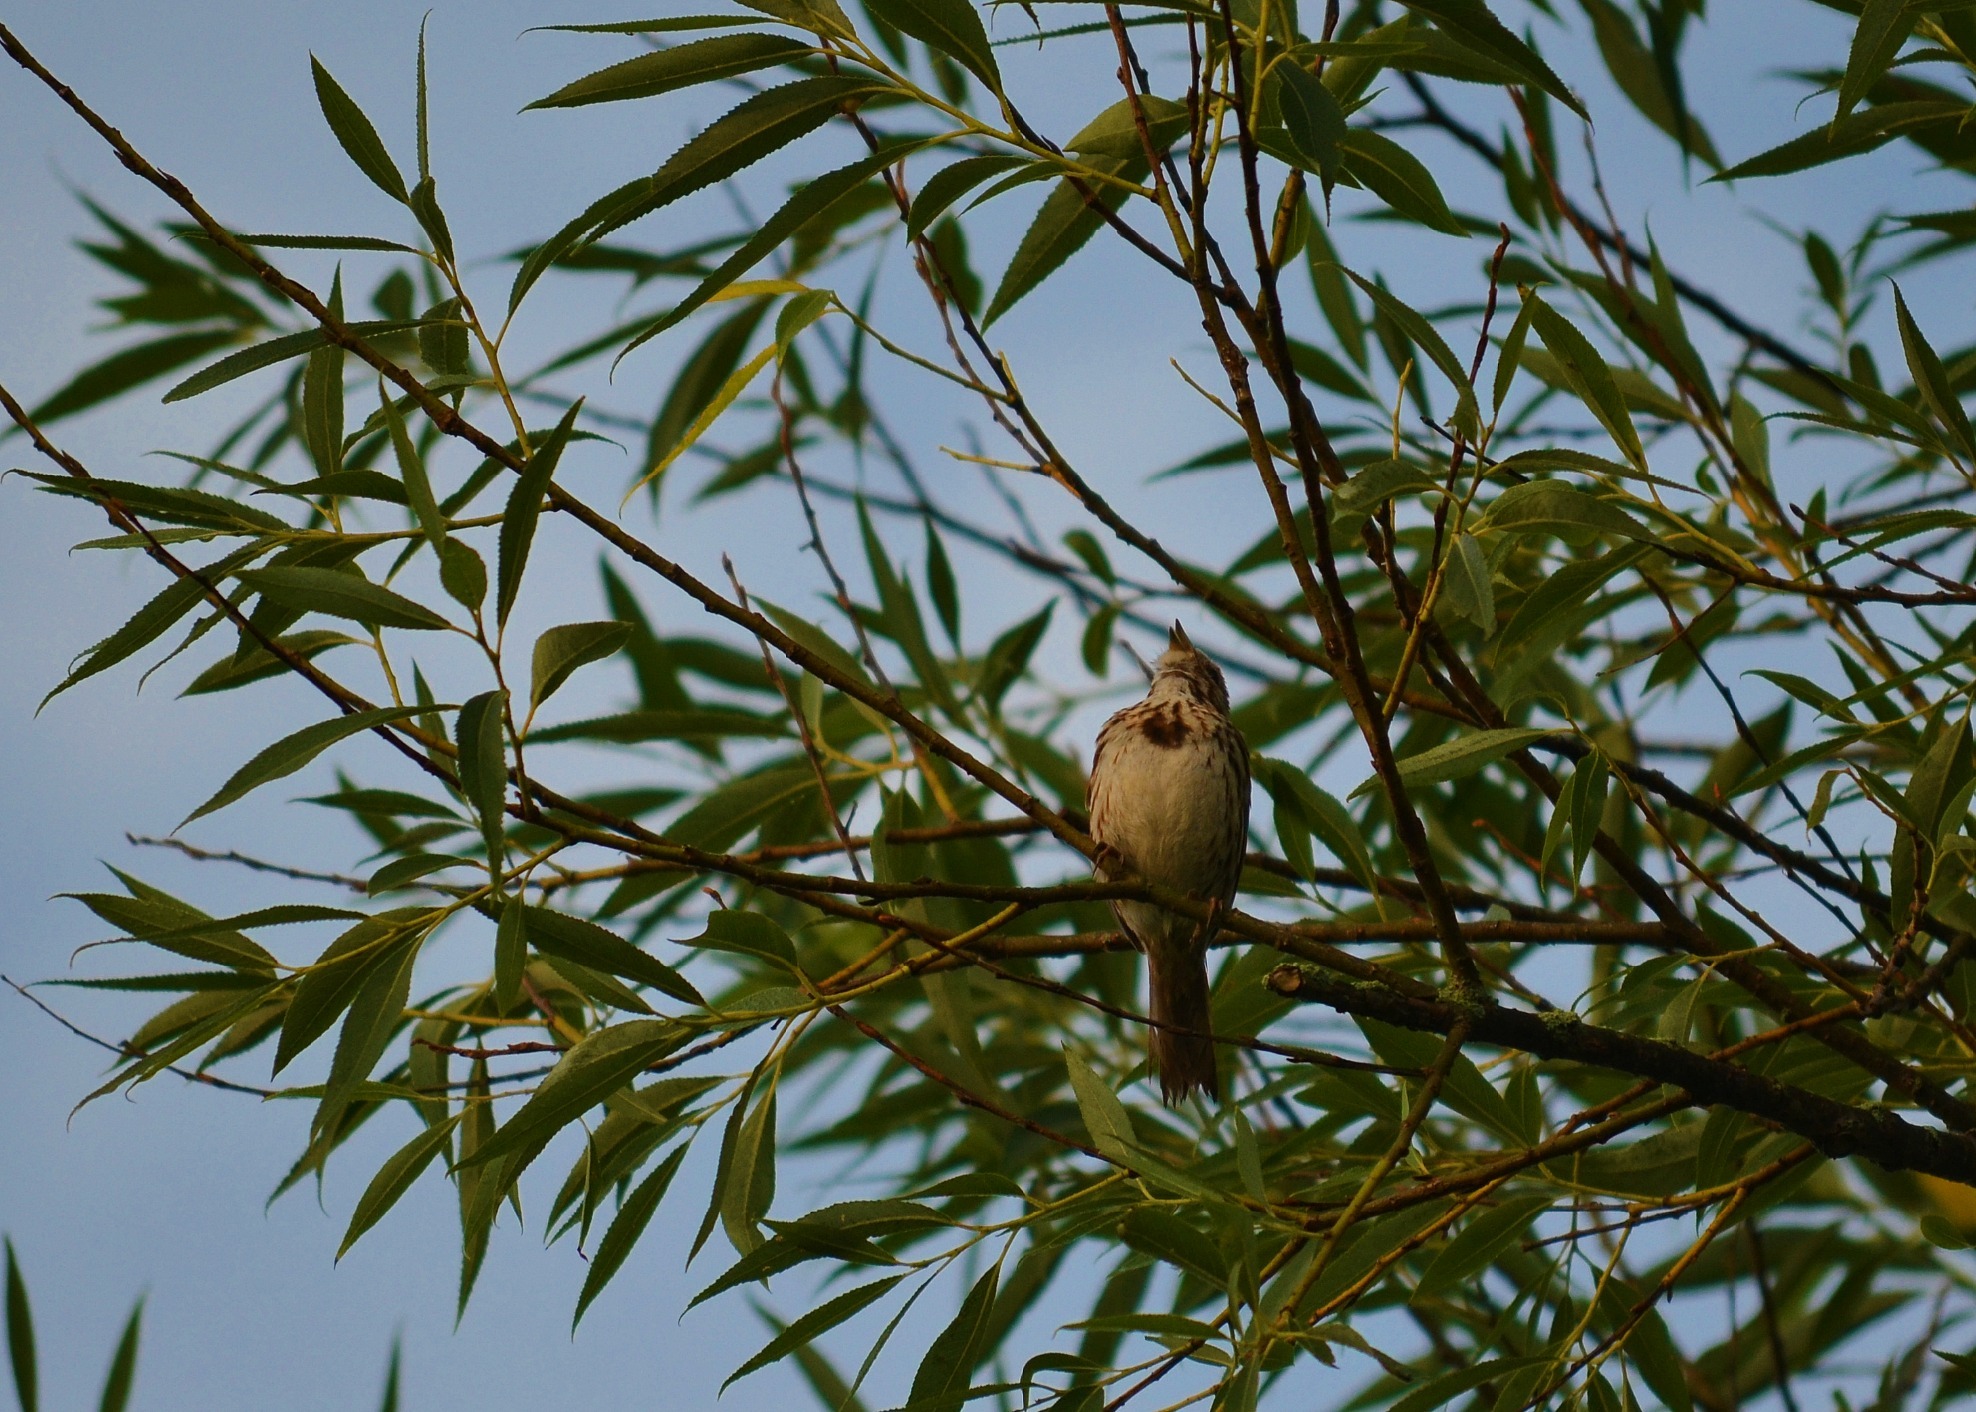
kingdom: Animalia
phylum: Chordata
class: Aves
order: Passeriformes
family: Passerellidae
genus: Melospiza
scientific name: Melospiza melodia
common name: Song sparrow
